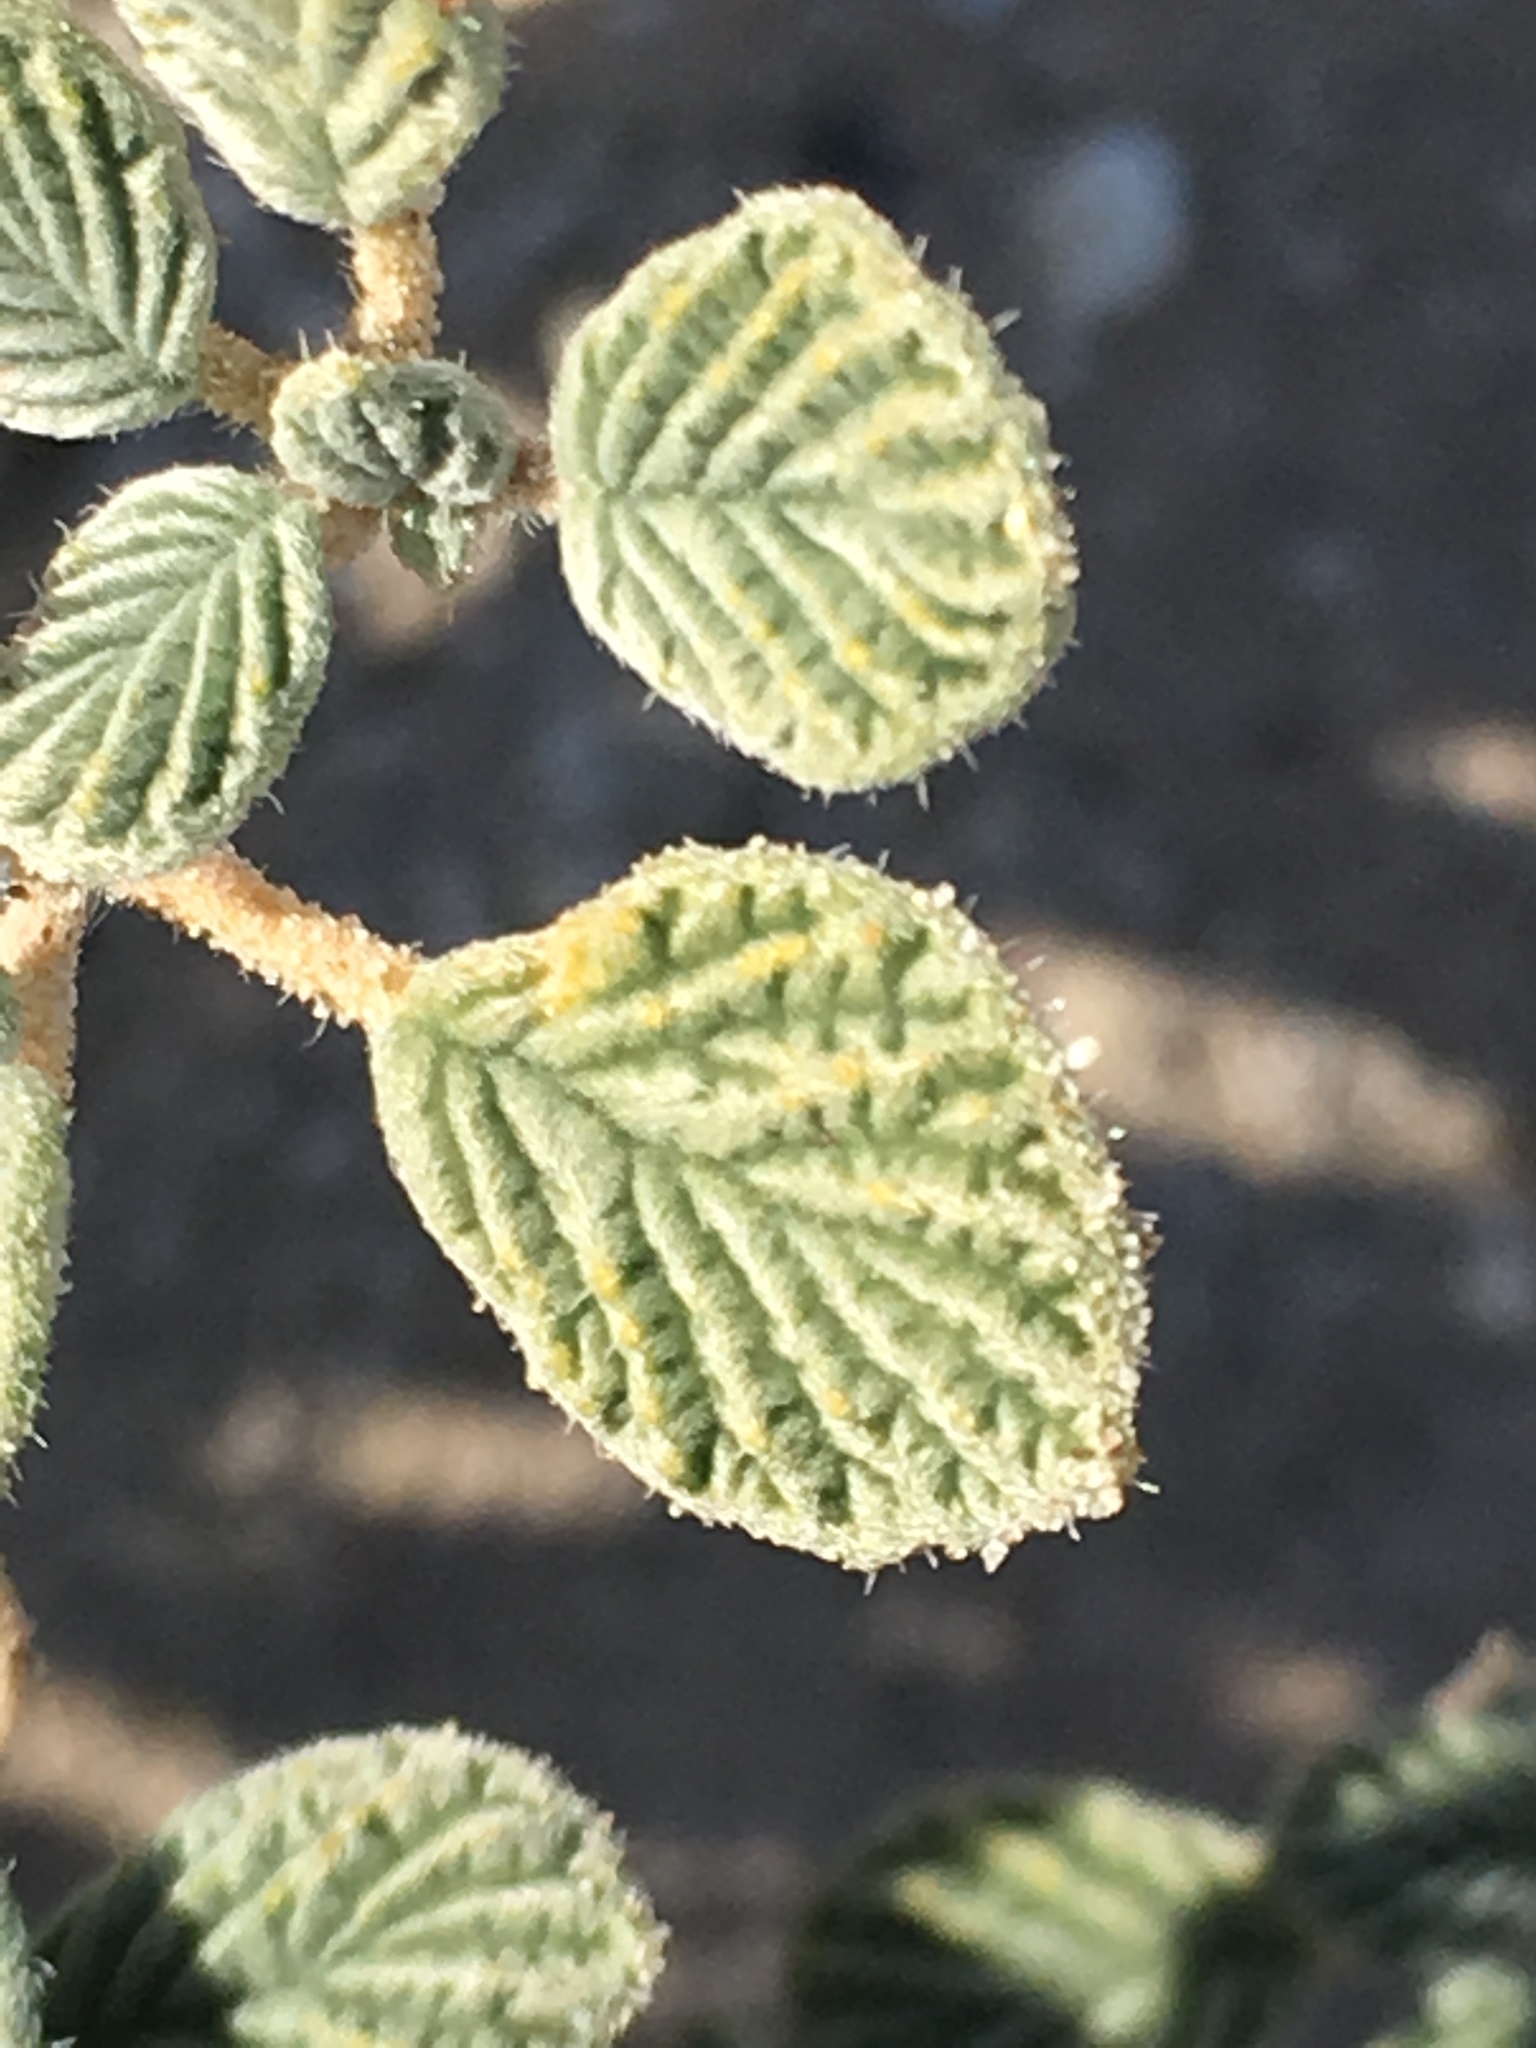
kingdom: Plantae
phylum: Tracheophyta
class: Magnoliopsida
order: Boraginales
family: Ehretiaceae
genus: Tiquilia
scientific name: Tiquilia plicata
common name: Fan-leaf tiquilia
